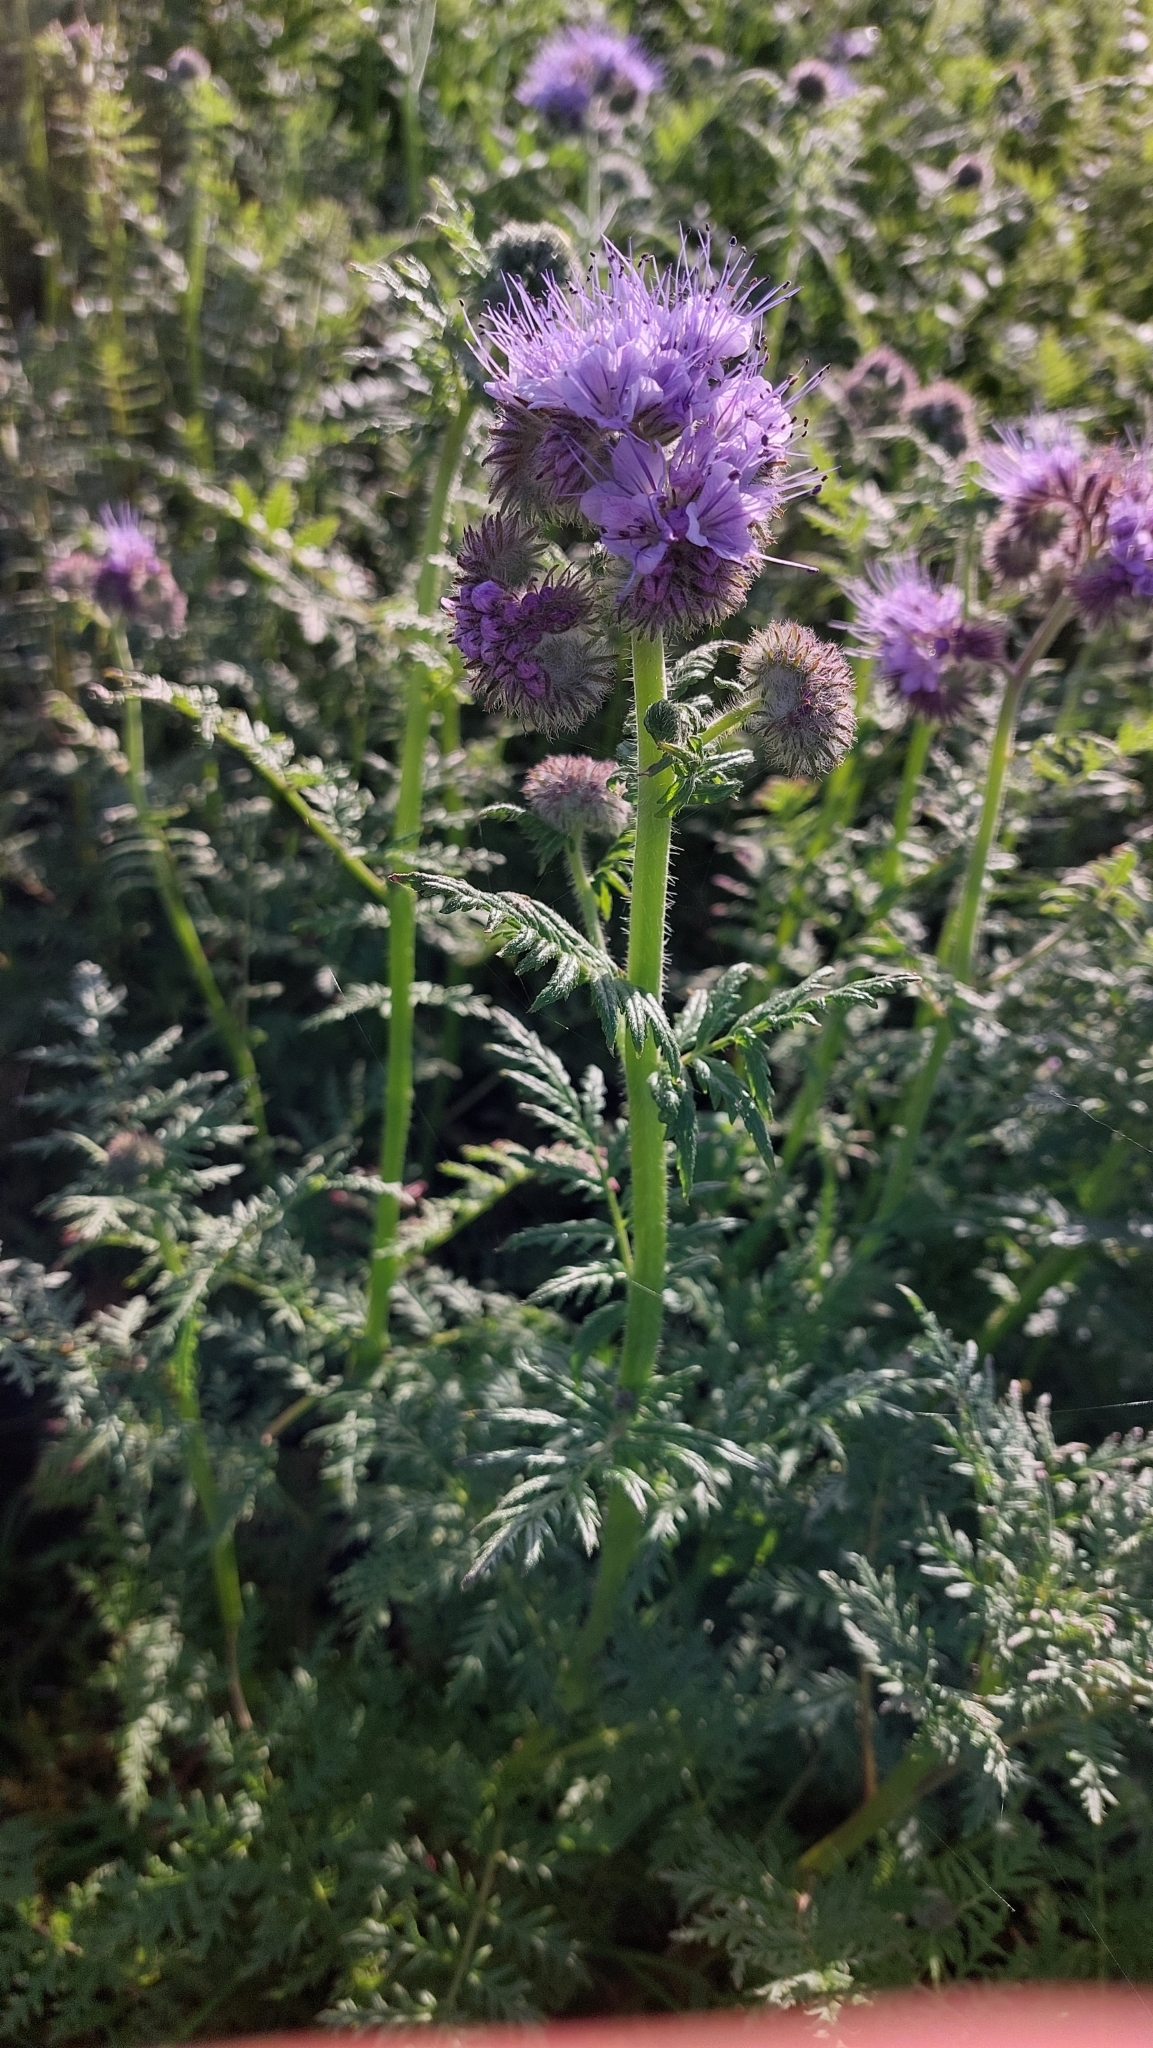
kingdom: Plantae
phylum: Tracheophyta
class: Magnoliopsida
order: Boraginales
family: Hydrophyllaceae
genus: Phacelia
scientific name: Phacelia tanacetifolia
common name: Phacelia
